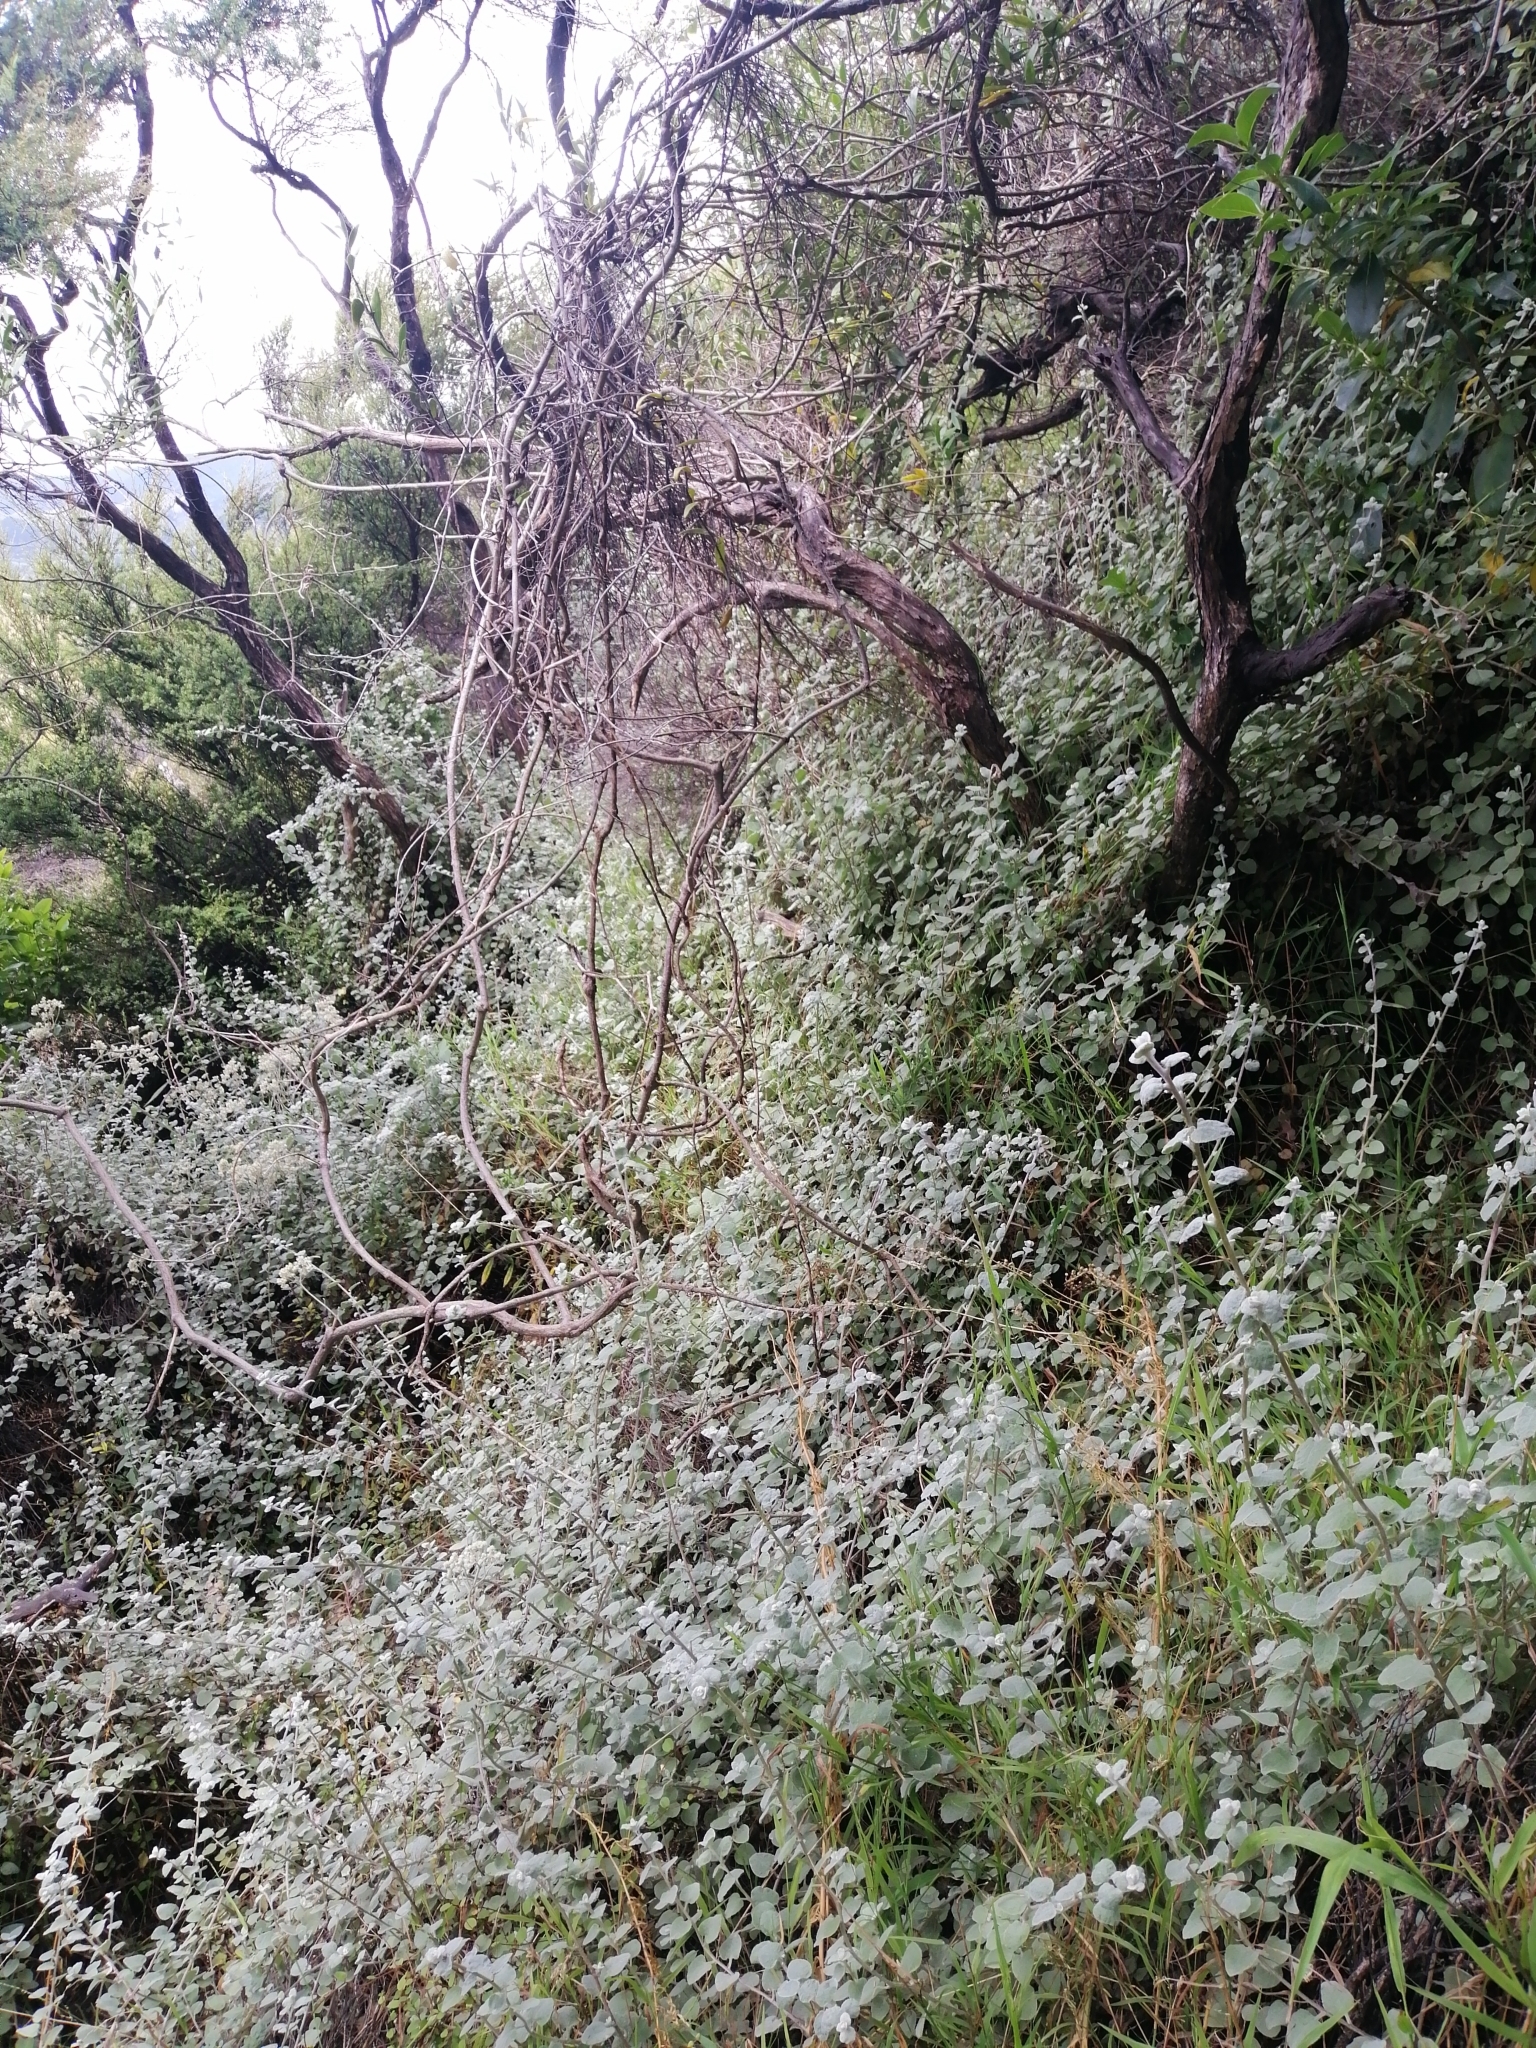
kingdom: Plantae
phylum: Tracheophyta
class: Magnoliopsida
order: Asterales
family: Asteraceae
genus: Helichrysum
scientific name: Helichrysum petiolare
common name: Licorice-plant
